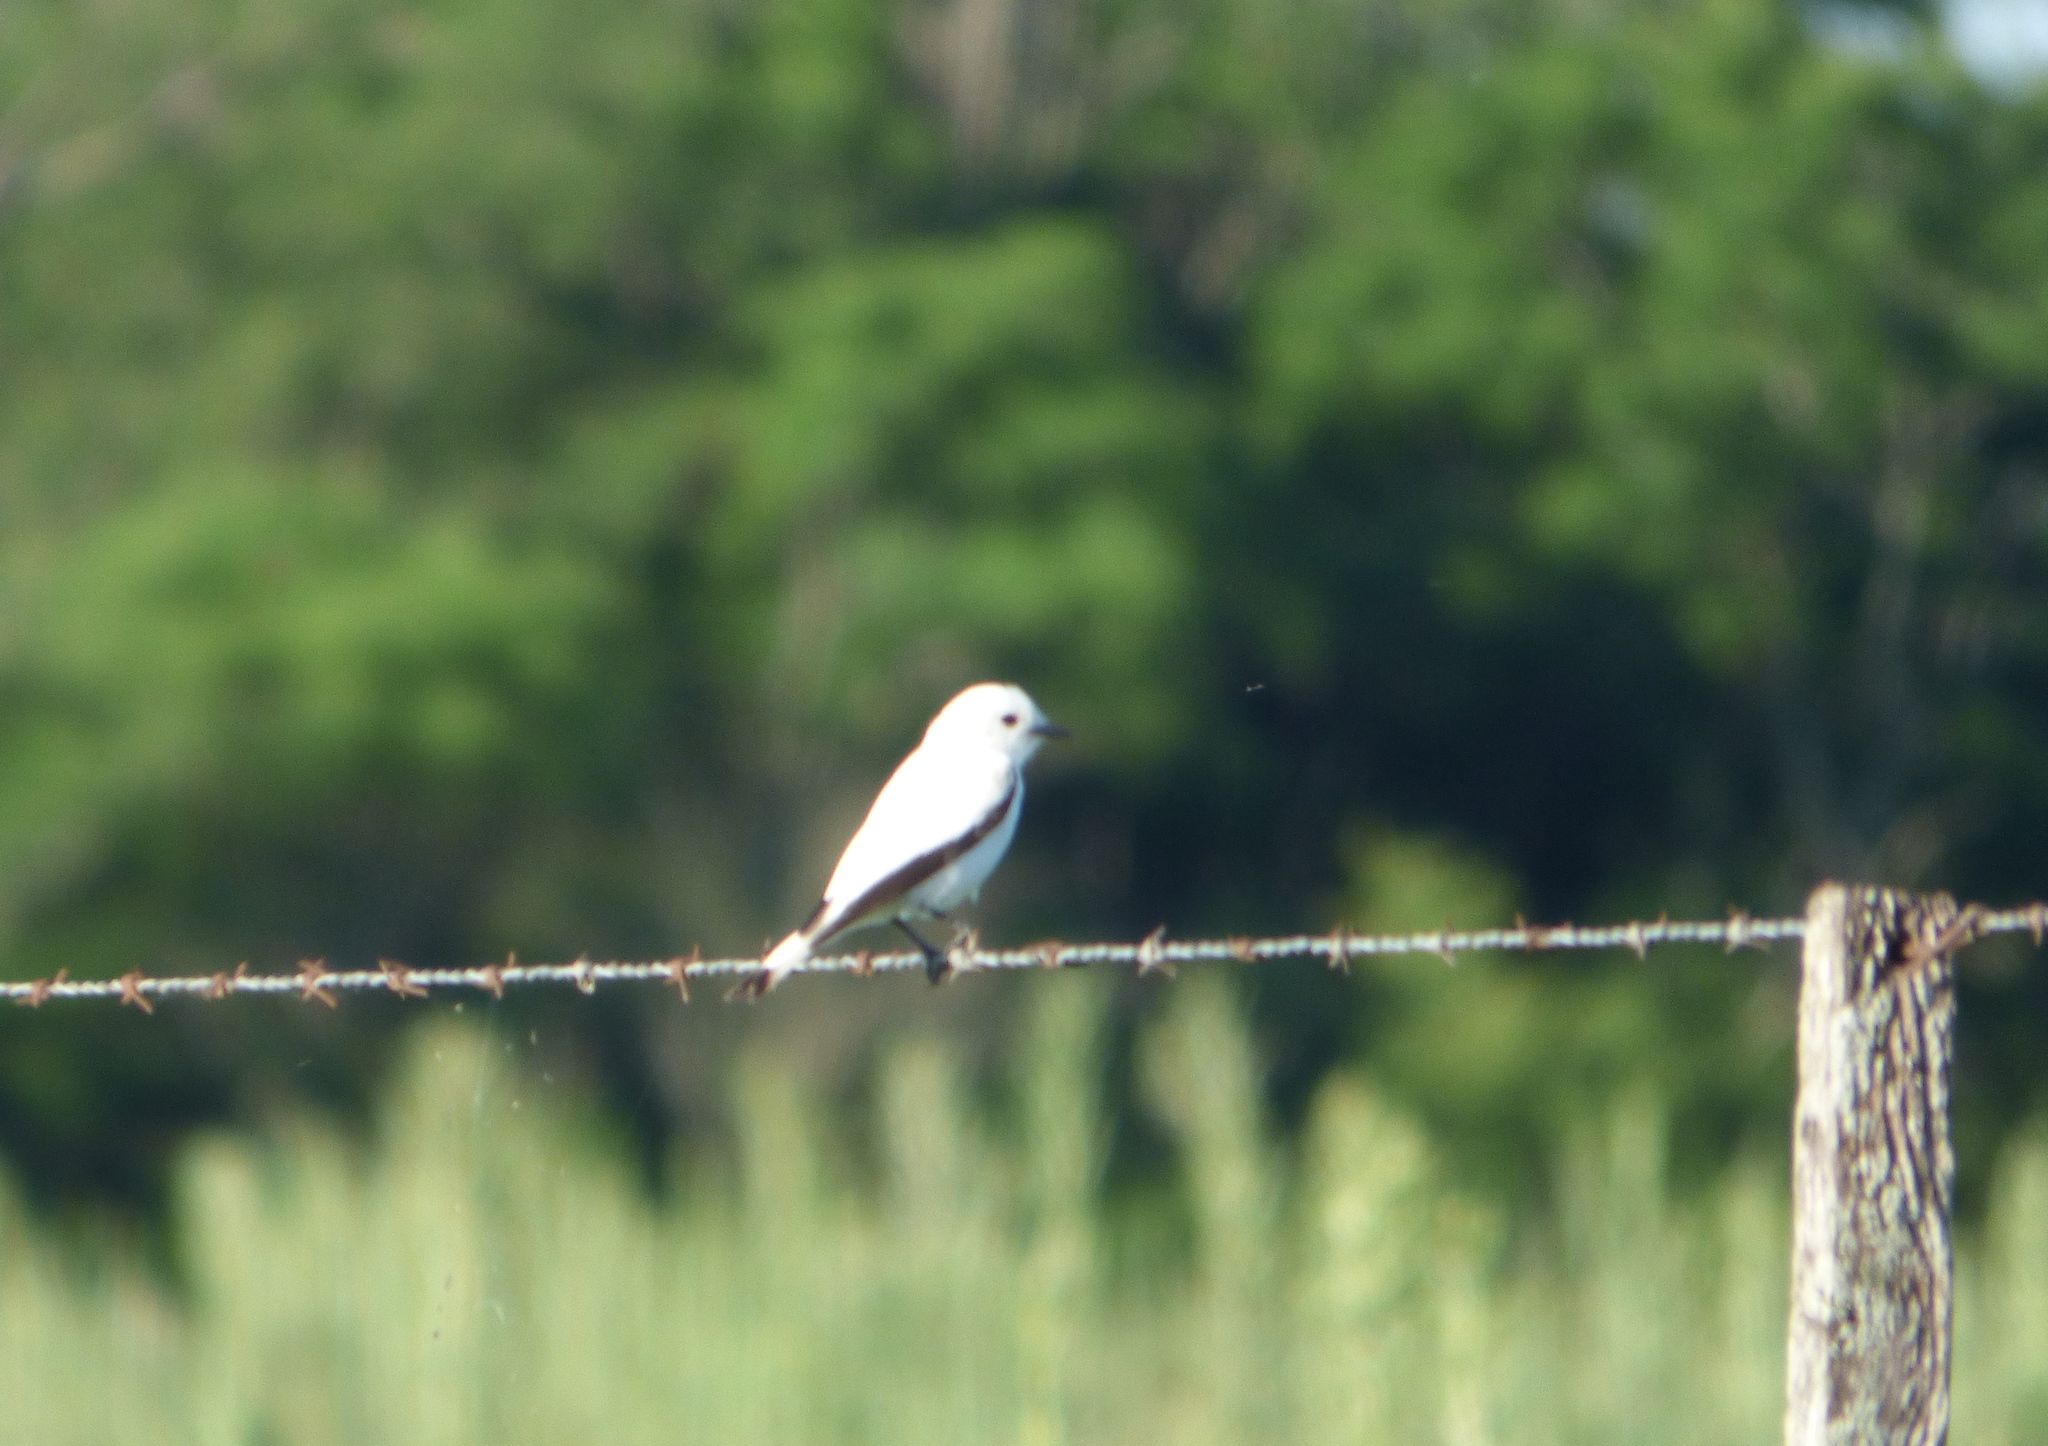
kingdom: Animalia
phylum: Chordata
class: Aves
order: Passeriformes
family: Tyrannidae
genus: Xolmis
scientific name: Xolmis irupero
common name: White monjita
